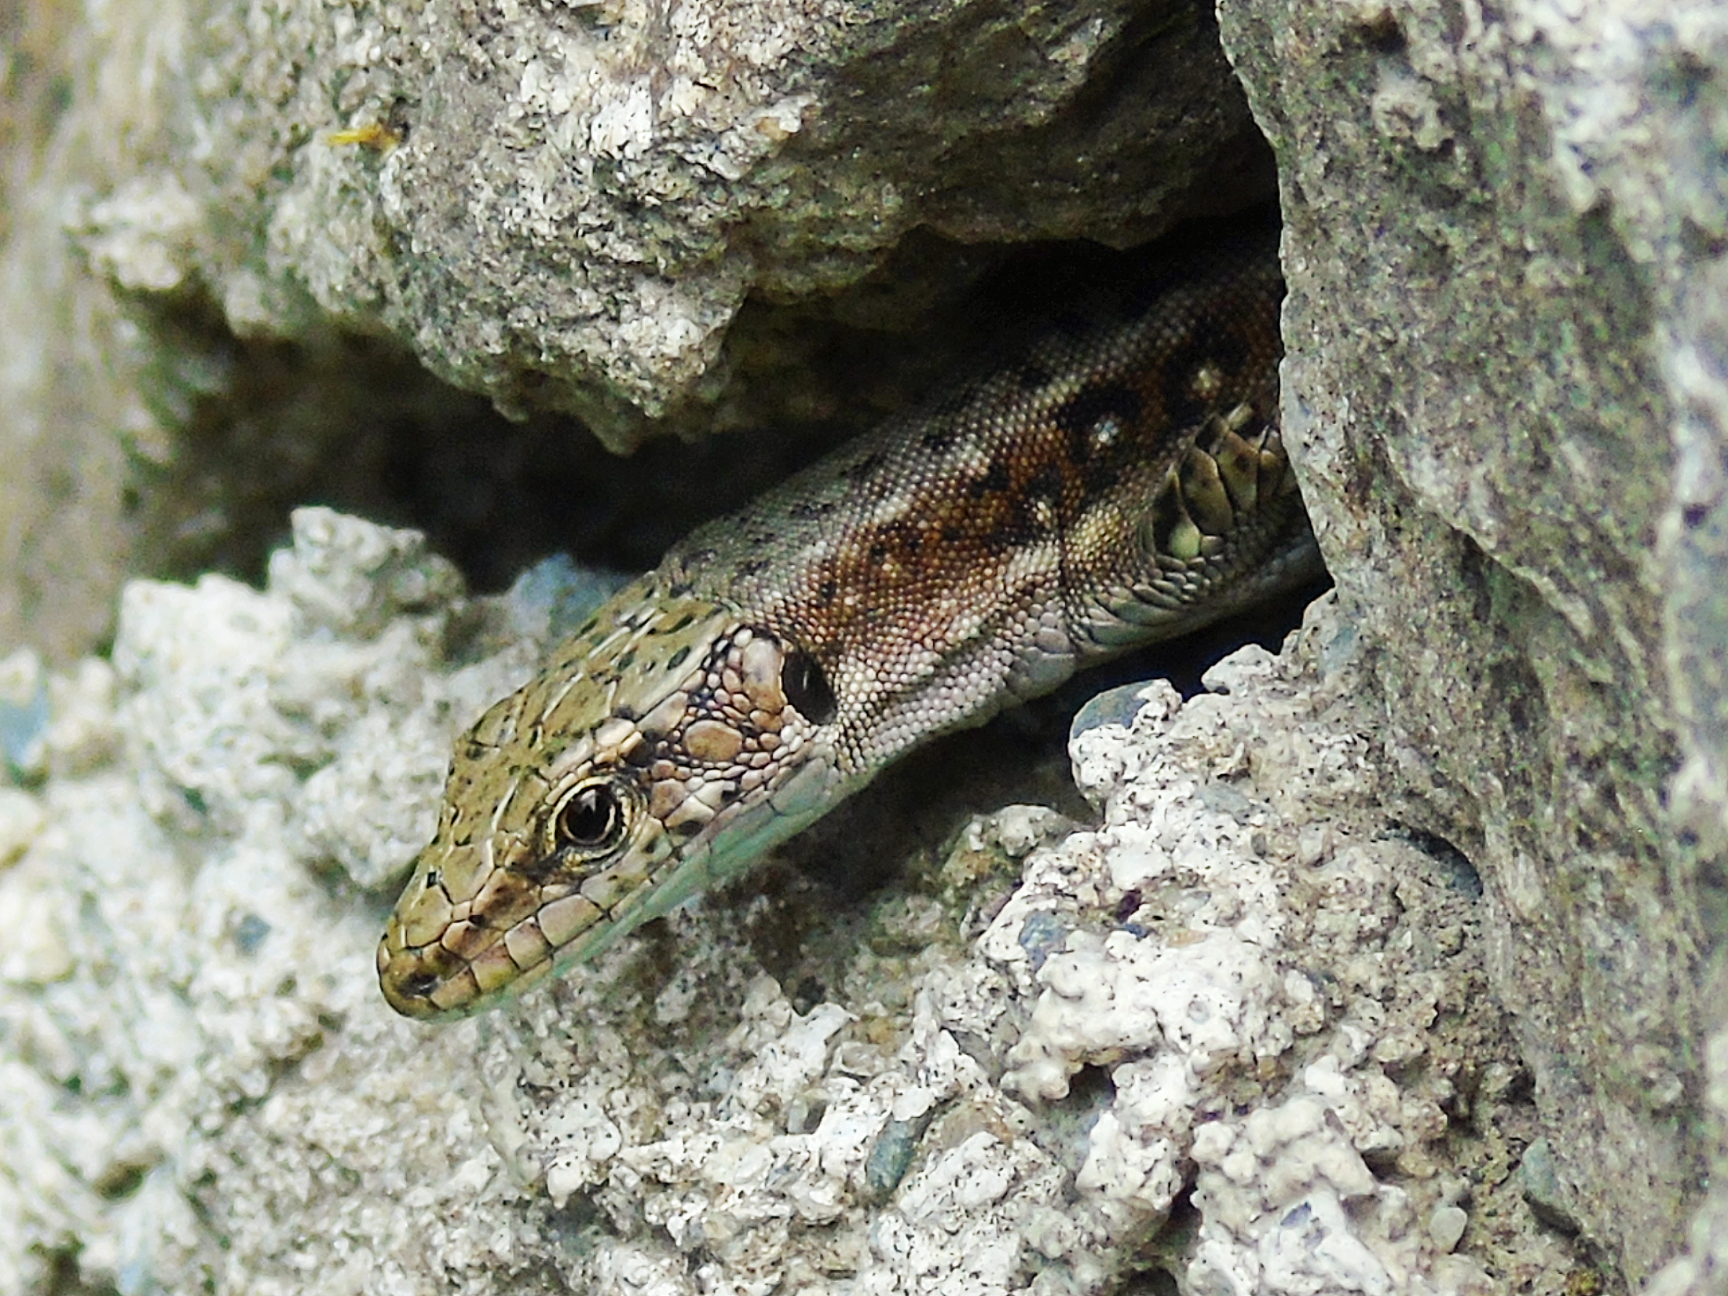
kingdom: Animalia
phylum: Chordata
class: Squamata
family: Lacertidae
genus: Darevskia
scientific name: Darevskia rudis
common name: Spiny-tailed lizard
